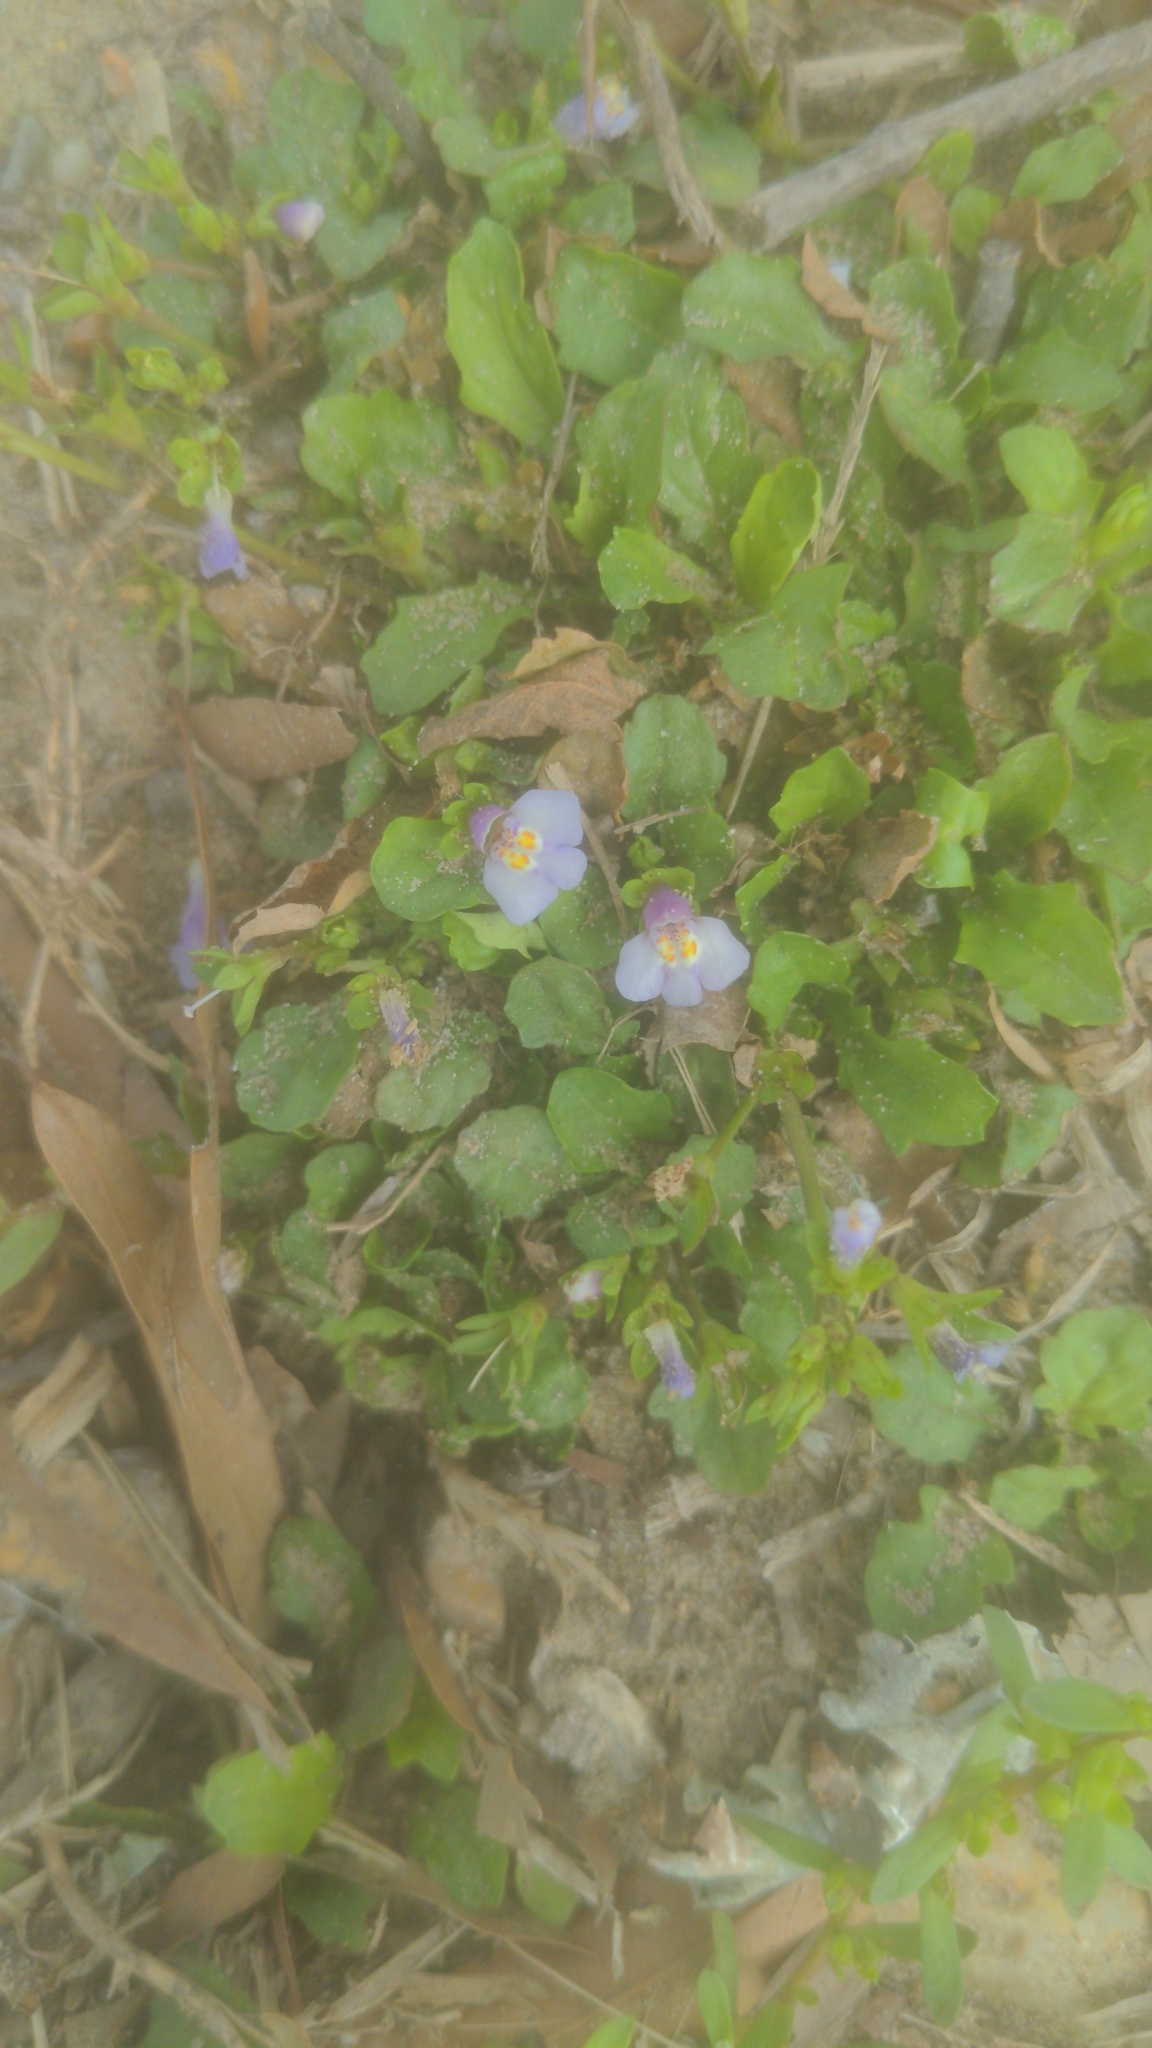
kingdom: Plantae
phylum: Tracheophyta
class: Magnoliopsida
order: Lamiales
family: Mazaceae
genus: Mazus
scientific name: Mazus pumilus
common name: Japanese mazus
